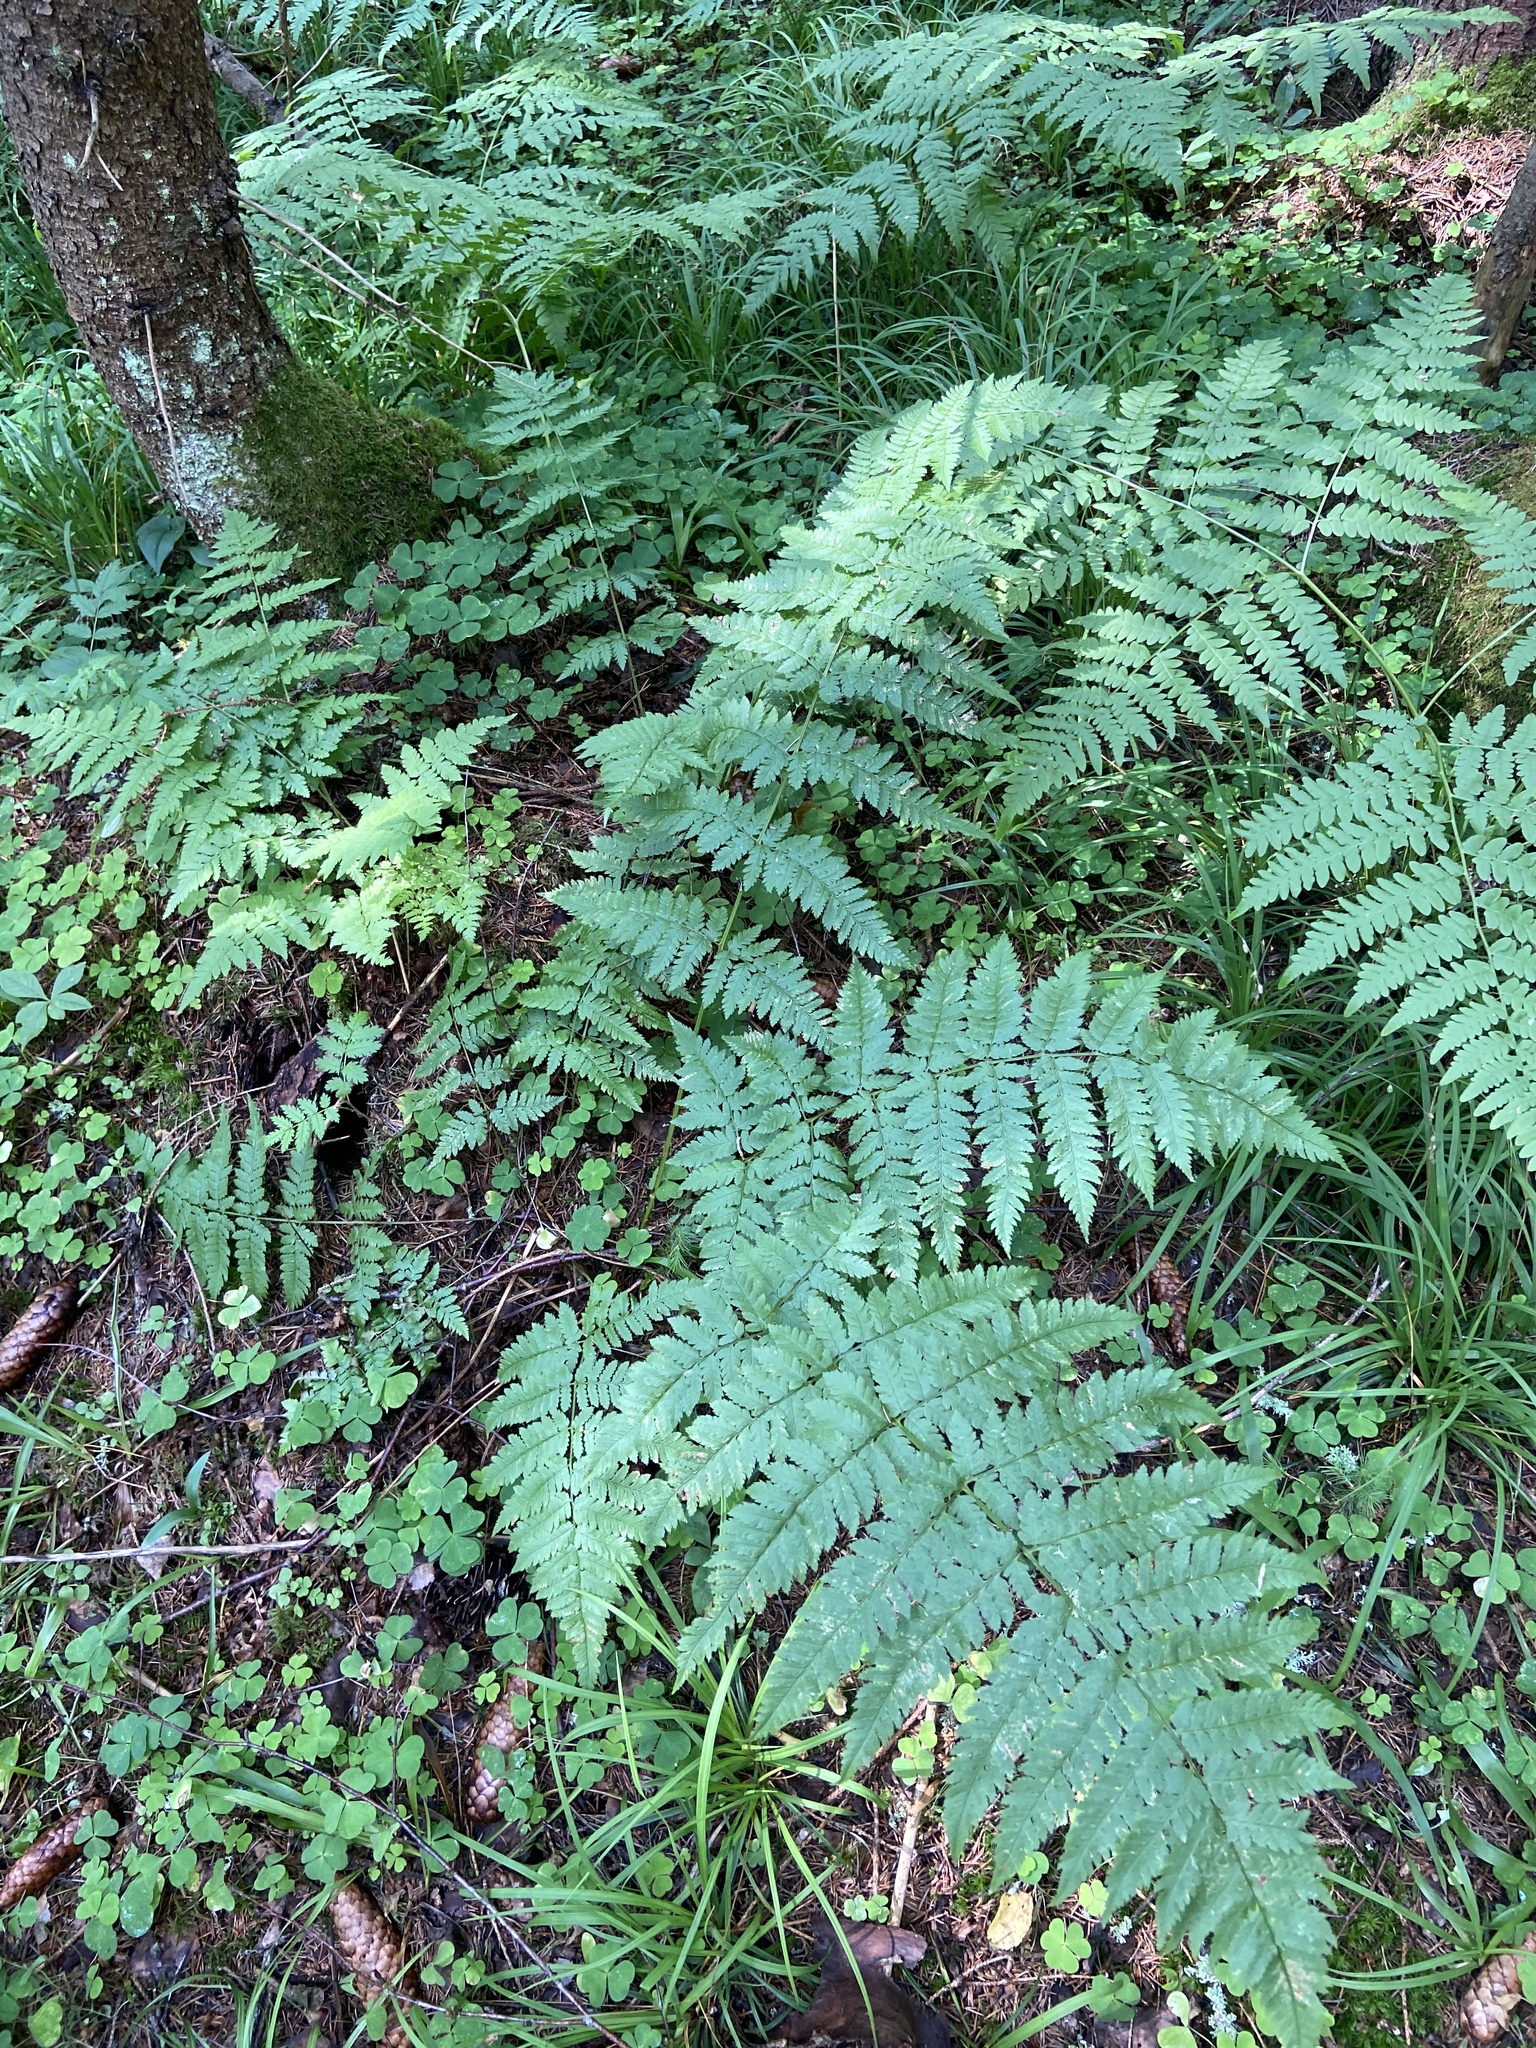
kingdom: Plantae
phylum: Tracheophyta
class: Polypodiopsida
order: Polypodiales
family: Dryopteridaceae
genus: Dryopteris
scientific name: Dryopteris carthusiana
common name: Narrow buckler-fern
